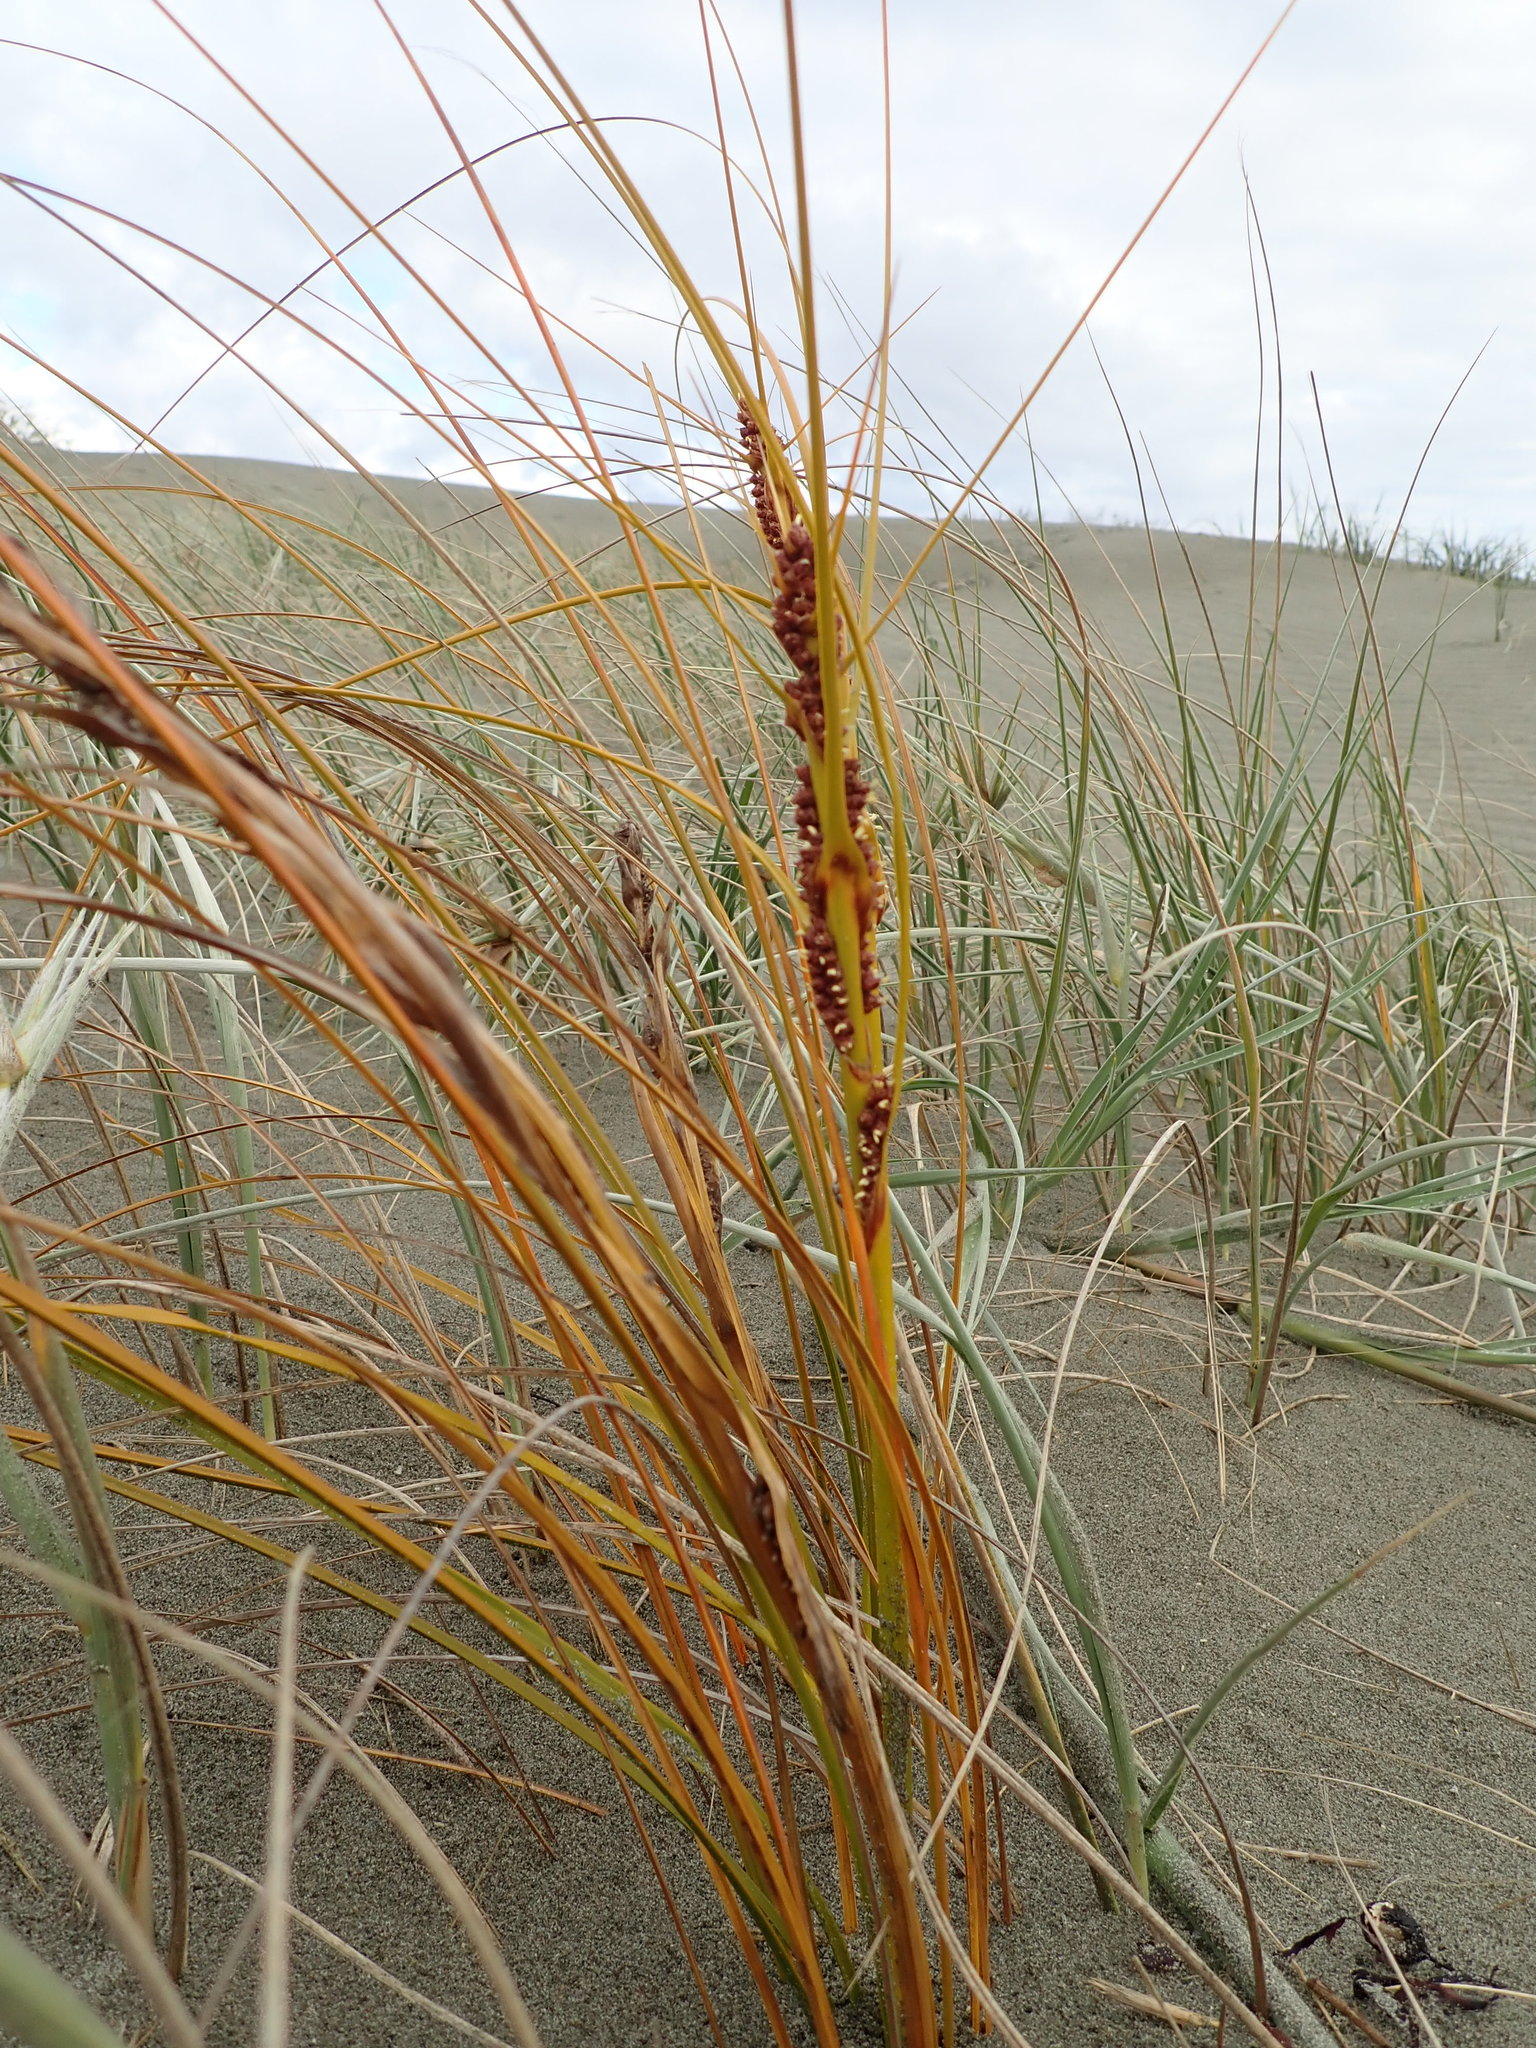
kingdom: Plantae
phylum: Tracheophyta
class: Liliopsida
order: Poales
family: Cyperaceae
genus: Ficinia
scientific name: Ficinia spiralis
